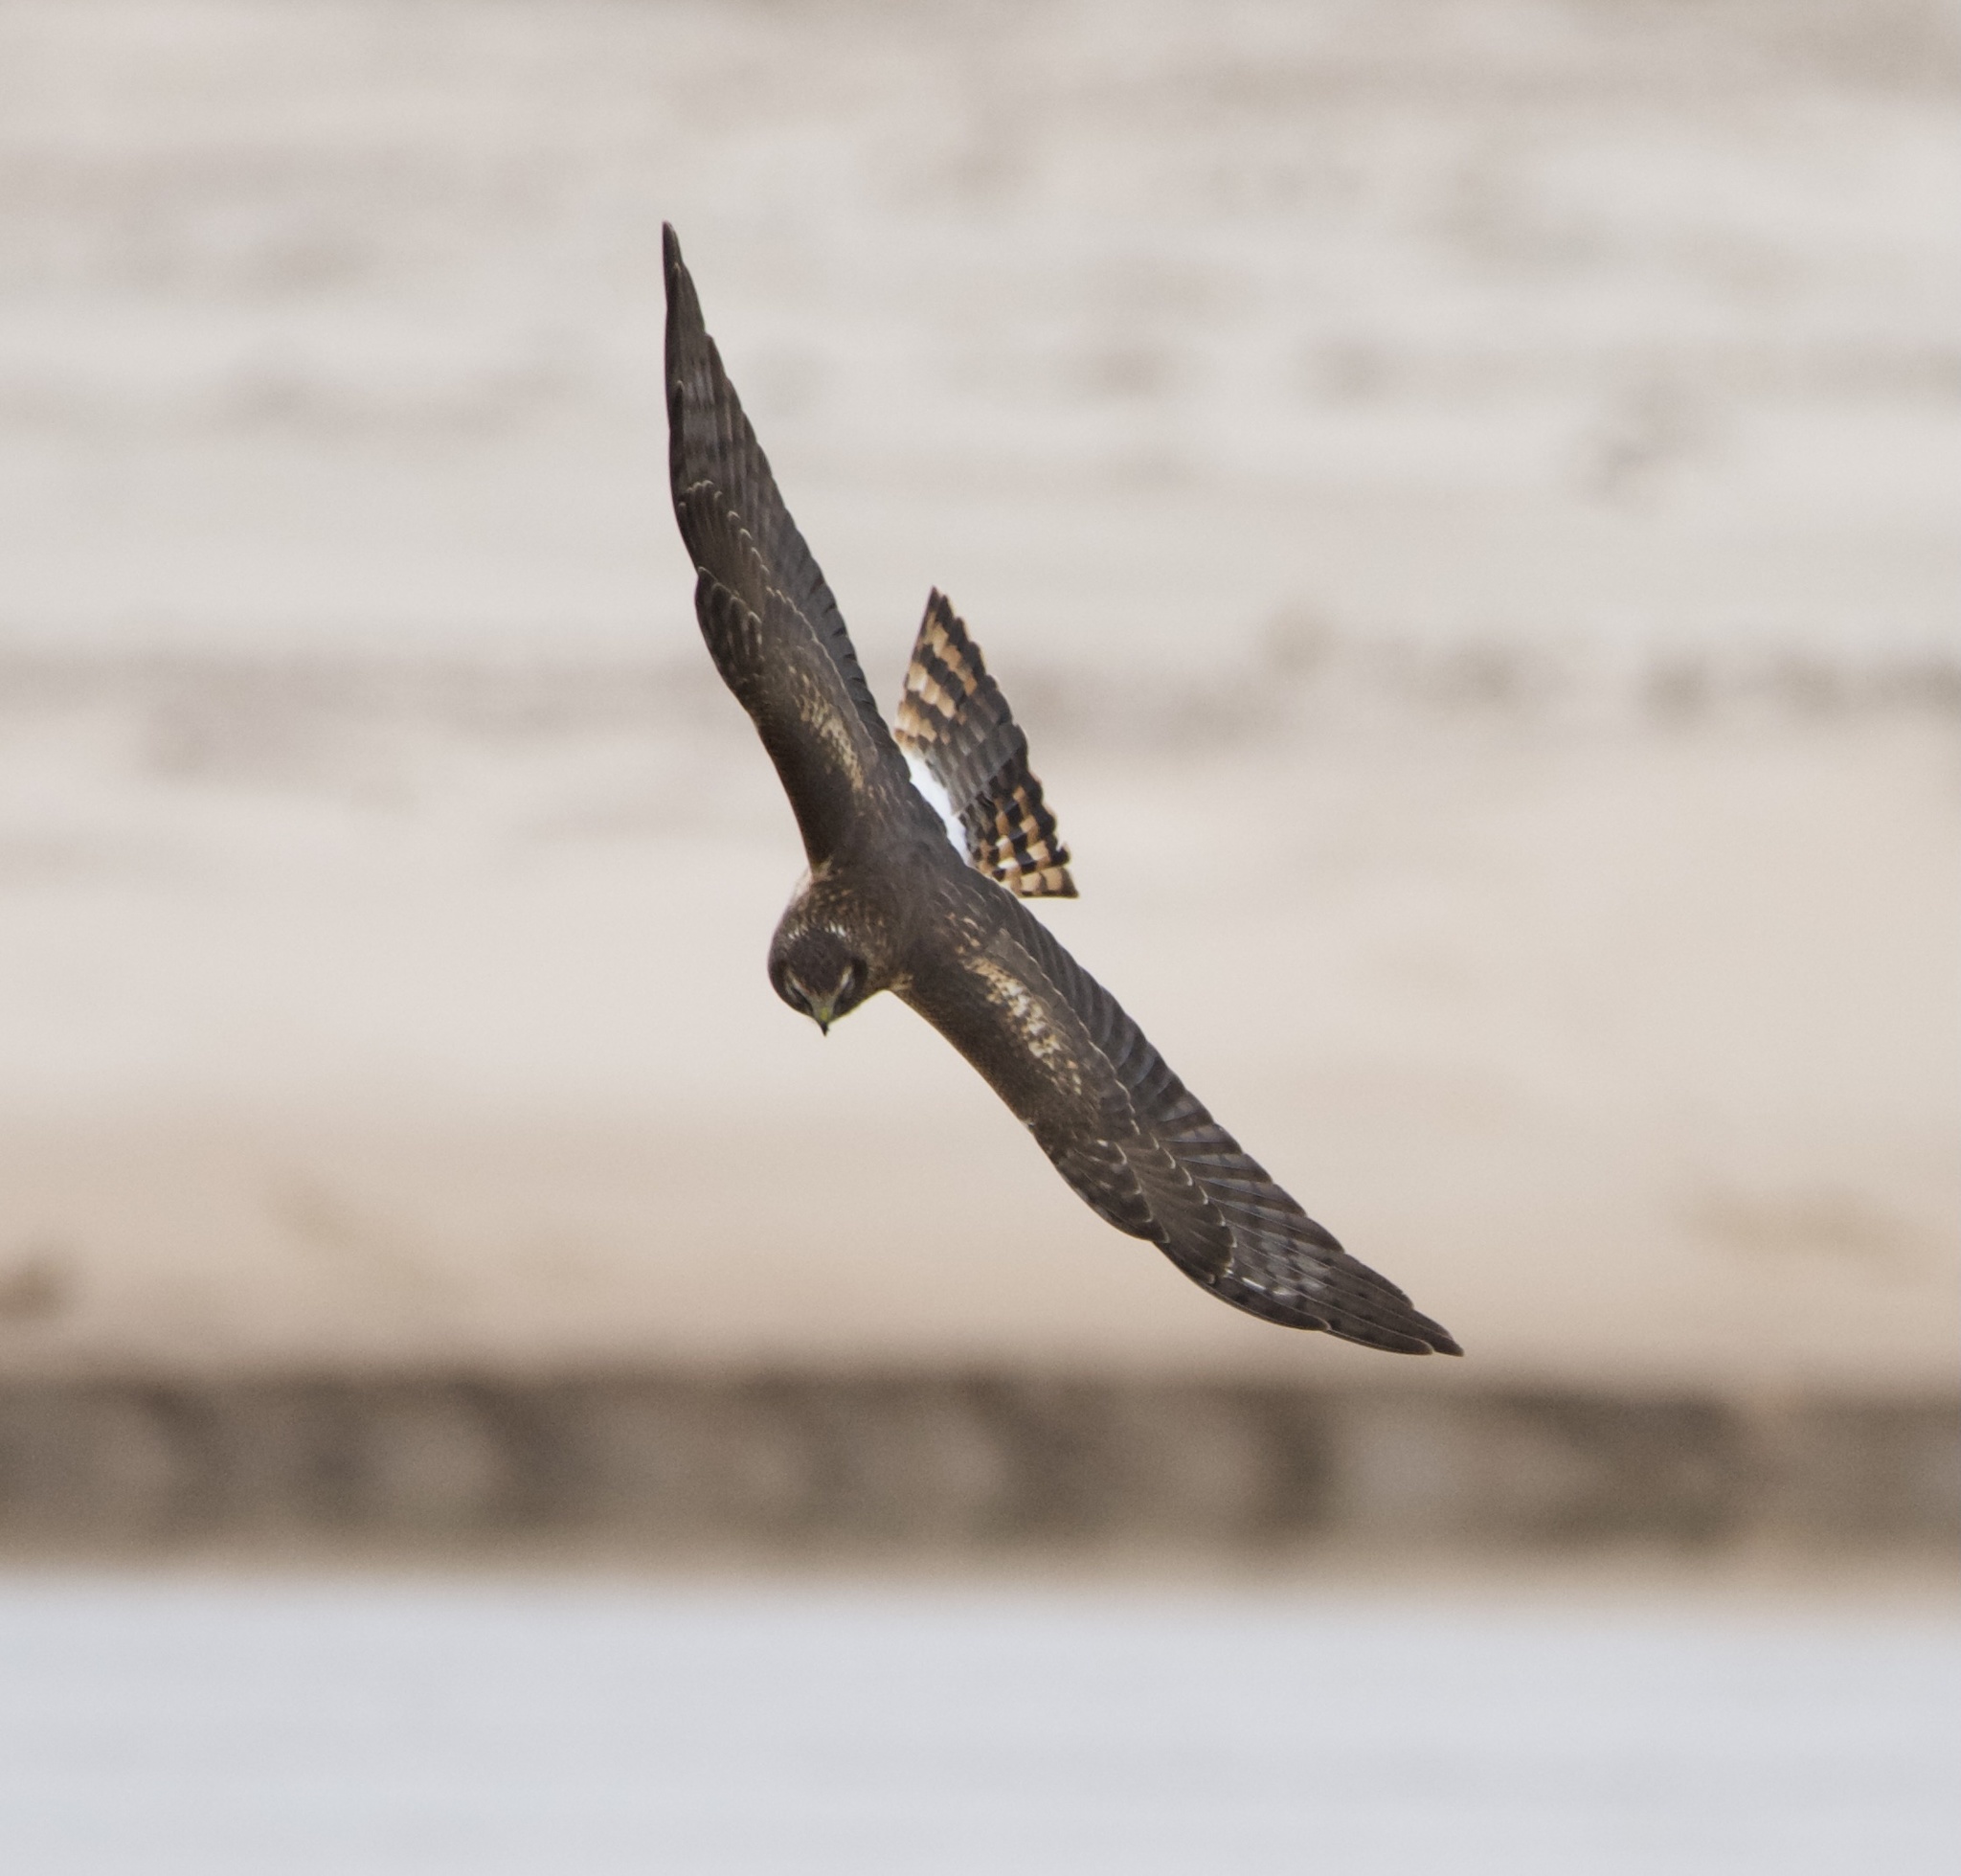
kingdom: Animalia
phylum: Chordata
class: Aves
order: Accipitriformes
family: Accipitridae
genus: Circus
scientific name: Circus cyaneus
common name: Hen harrier
